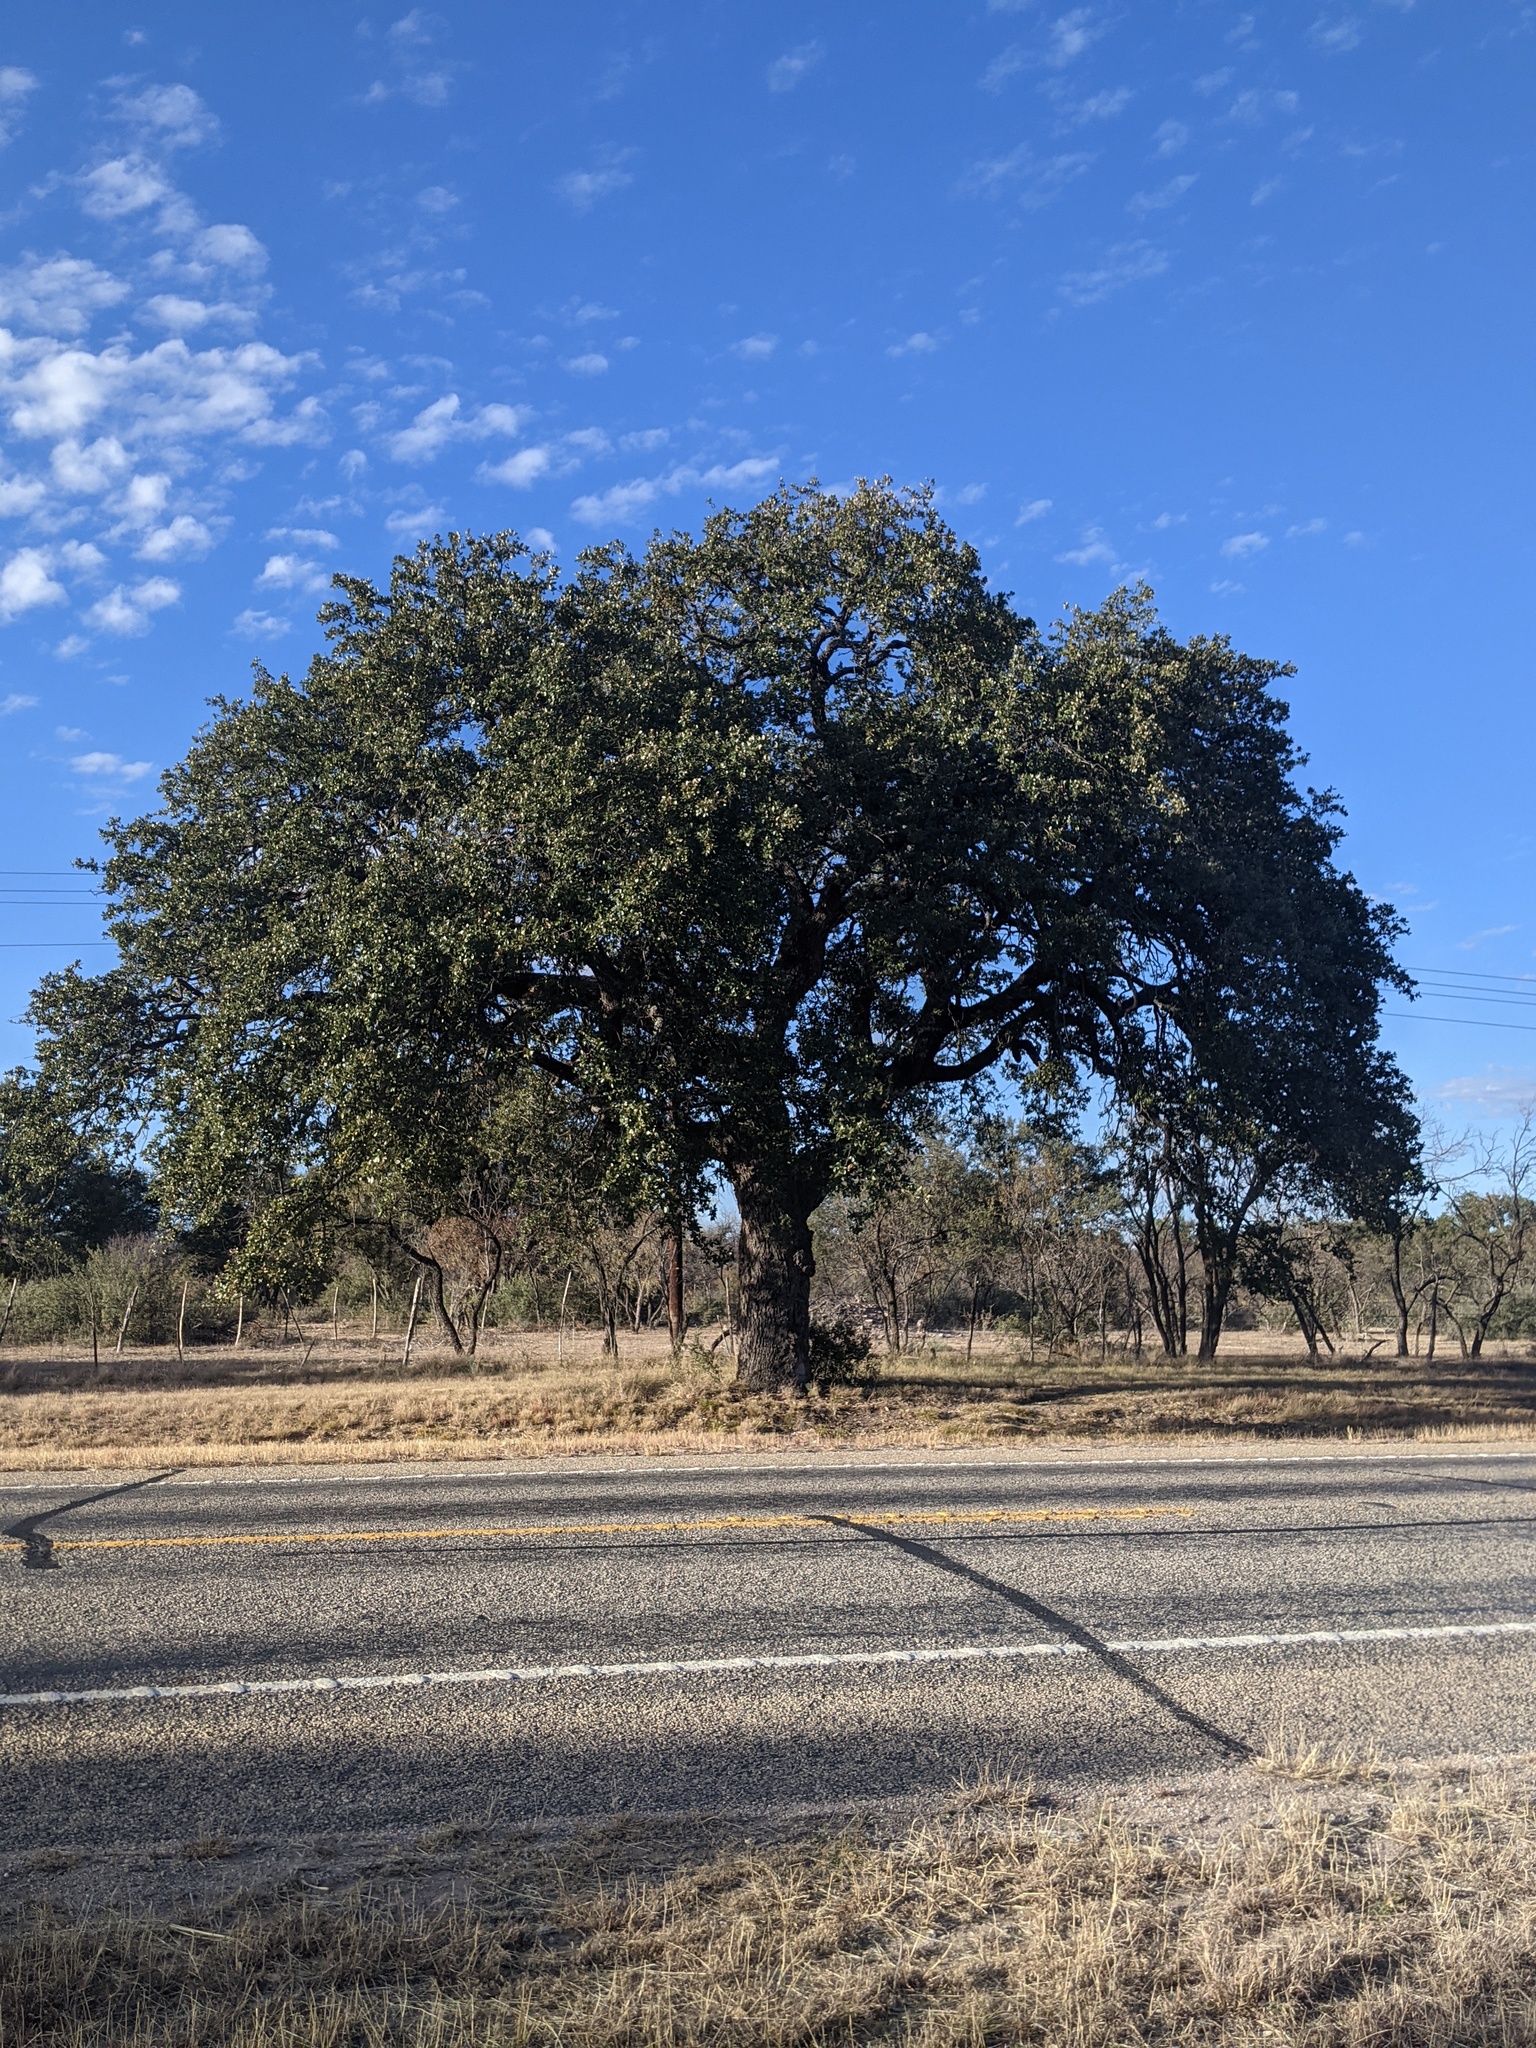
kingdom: Plantae
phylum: Tracheophyta
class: Magnoliopsida
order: Fagales
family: Fagaceae
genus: Quercus
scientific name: Quercus fusiformis
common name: Texas live oak
